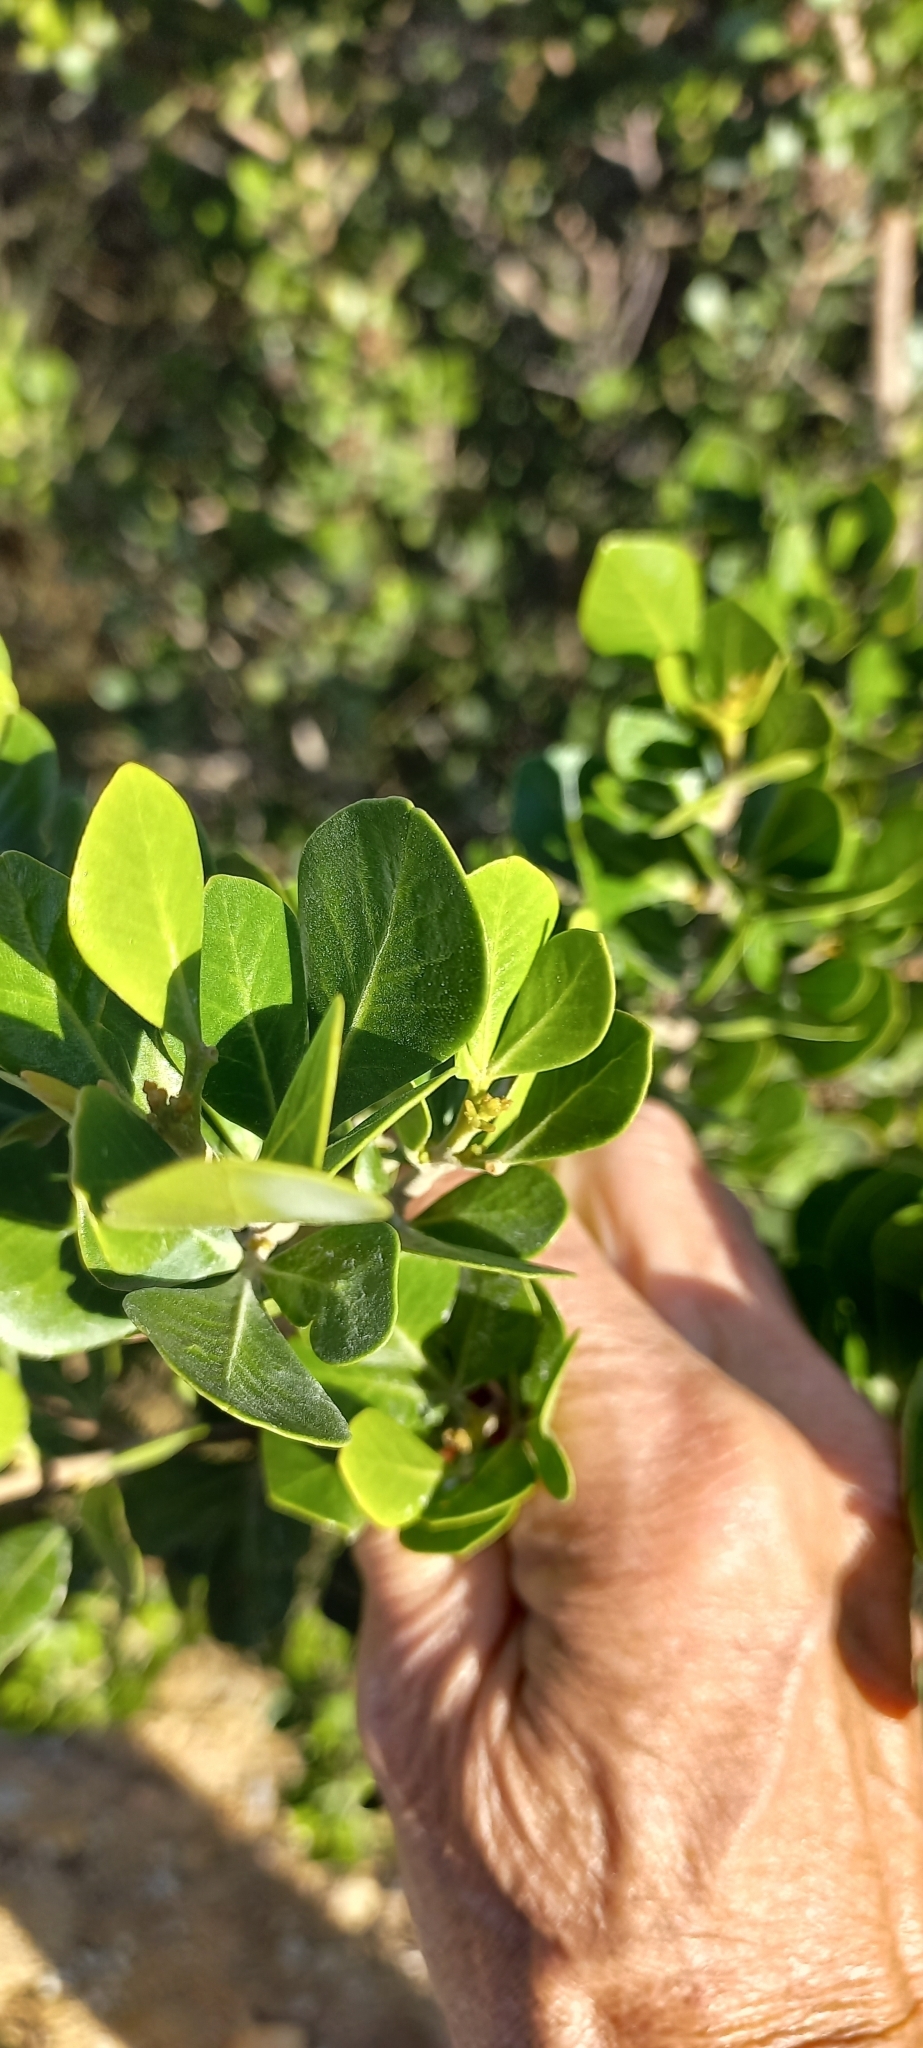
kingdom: Plantae
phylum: Tracheophyta
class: Magnoliopsida
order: Sapindales
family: Anacardiaceae
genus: Searsia
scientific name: Searsia lucida
